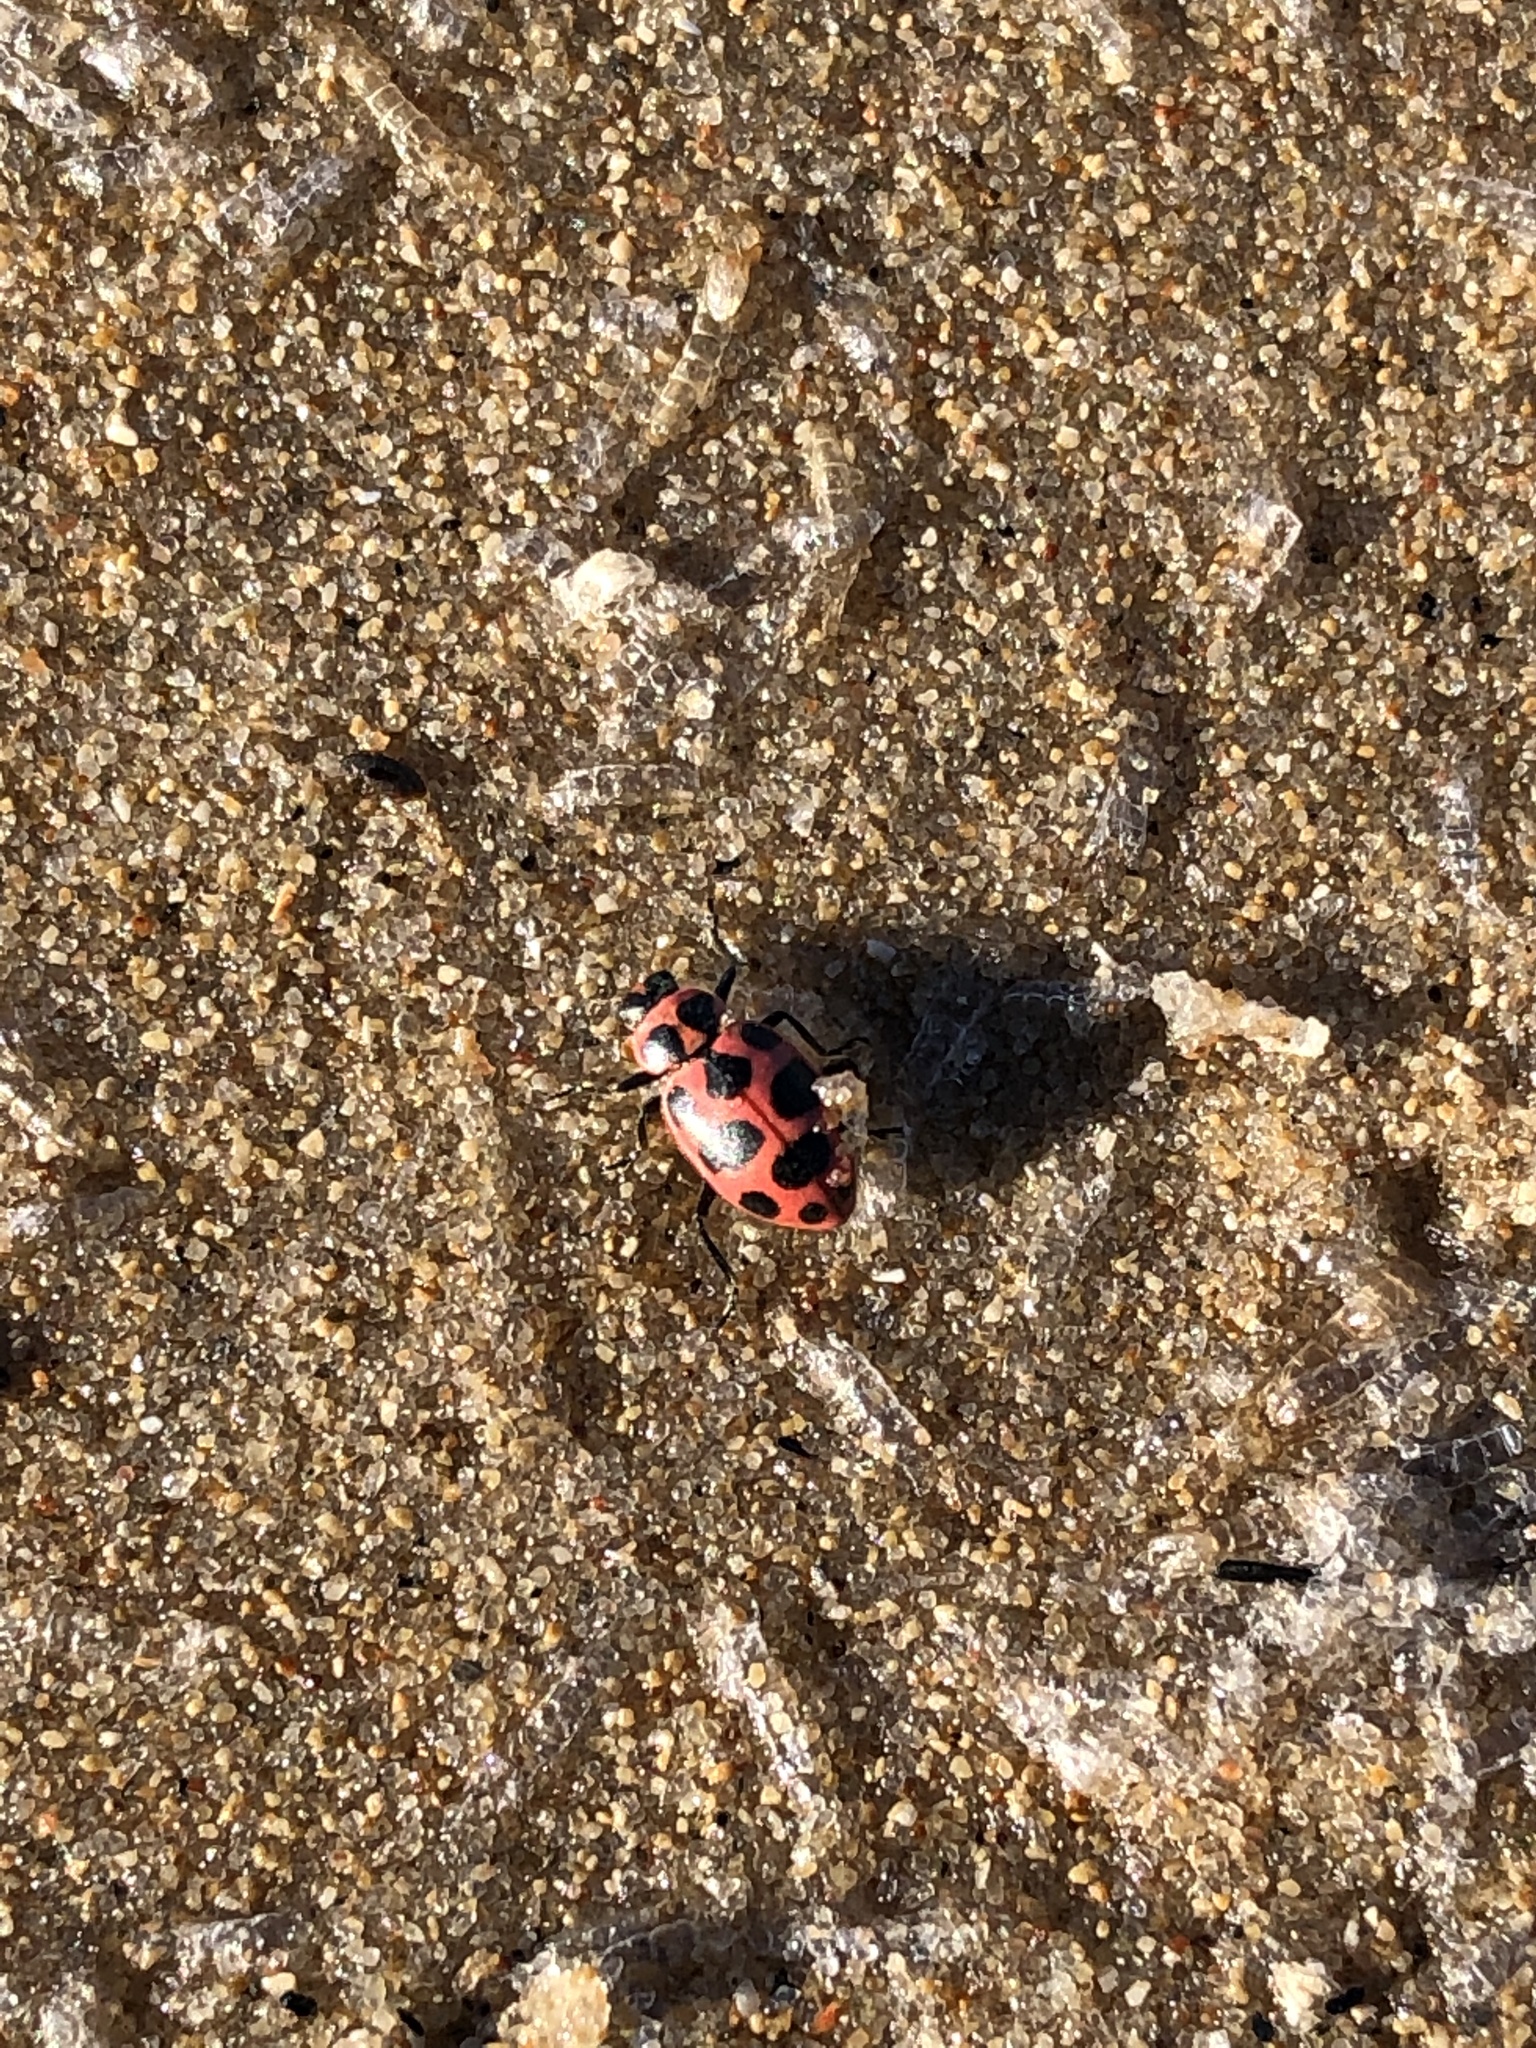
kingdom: Animalia
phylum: Arthropoda
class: Insecta
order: Coleoptera
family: Coccinellidae
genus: Coleomegilla
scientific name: Coleomegilla maculata
